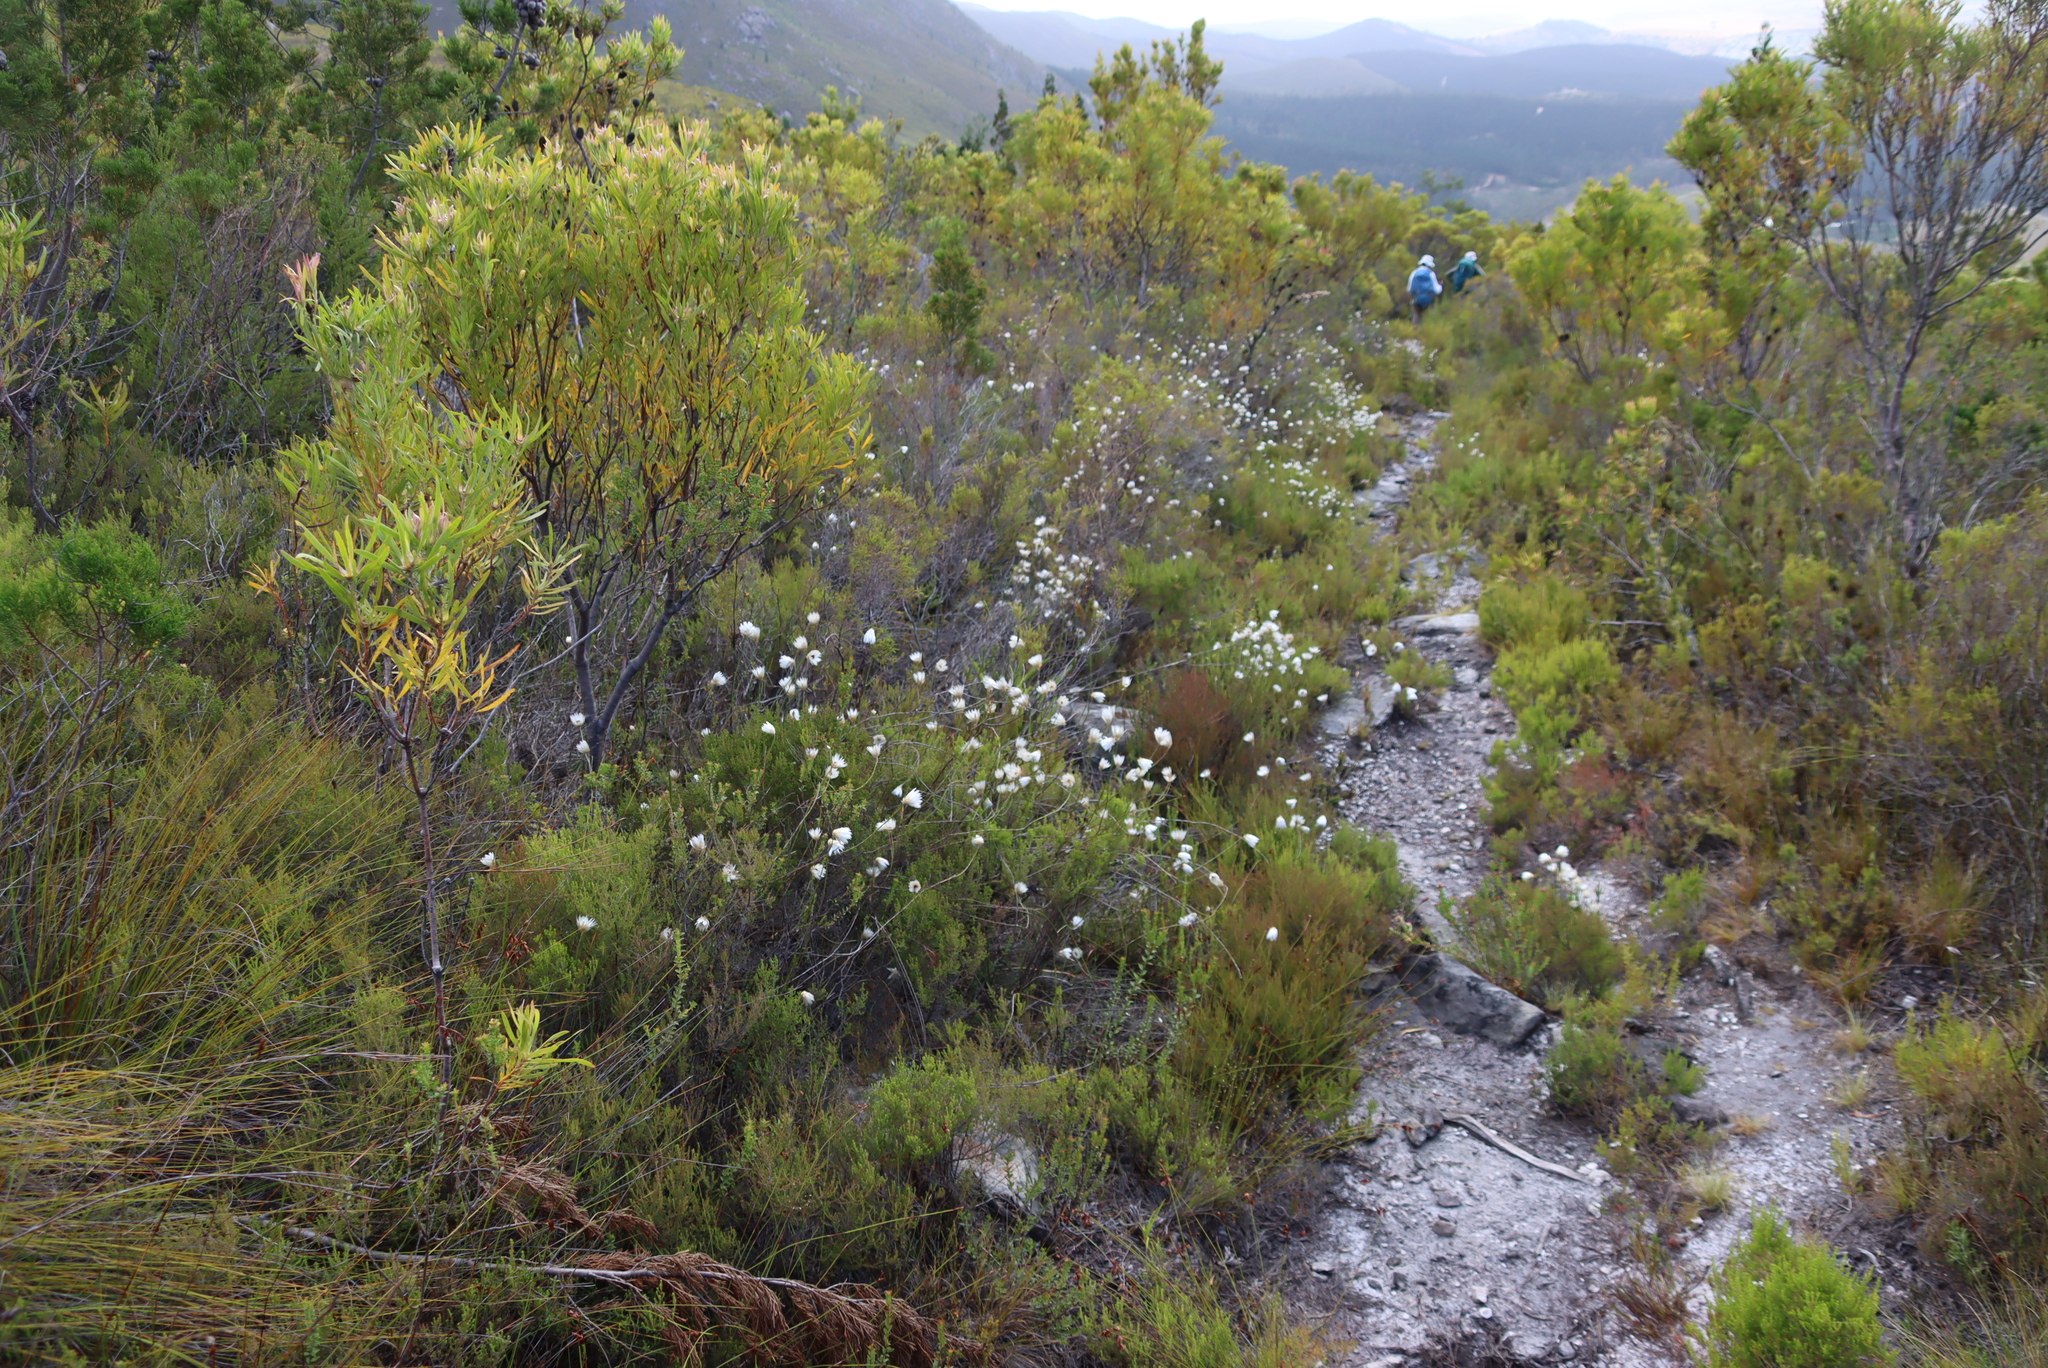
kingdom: Plantae
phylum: Tracheophyta
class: Magnoliopsida
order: Asterales
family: Asteraceae
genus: Edmondia
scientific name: Edmondia sesamoides
